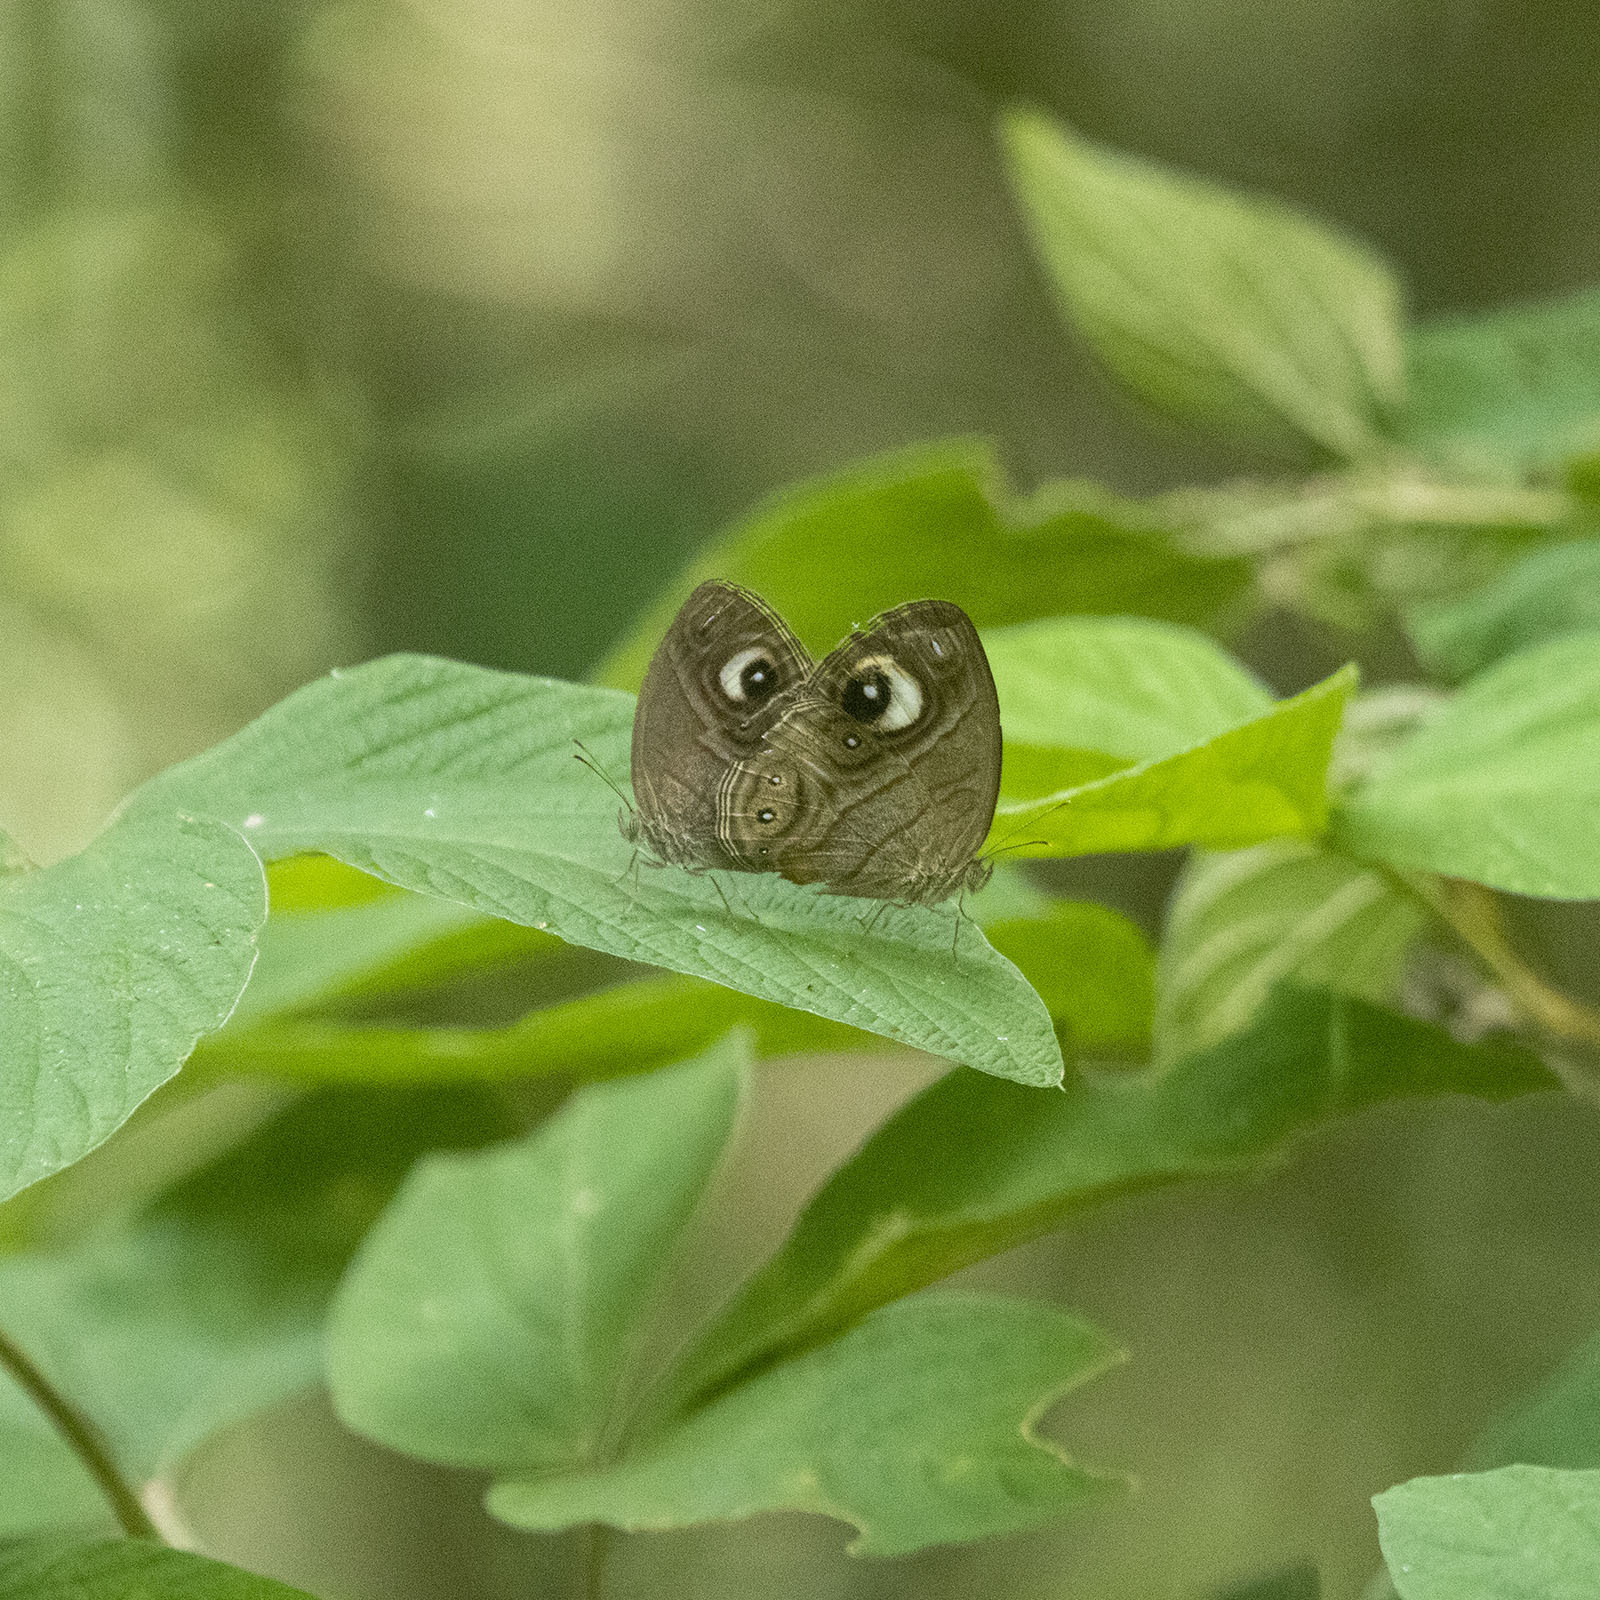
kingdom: Animalia
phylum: Arthropoda
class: Insecta
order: Lepidoptera
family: Nymphalidae
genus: Mycalesis
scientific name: Mycalesis patnia
